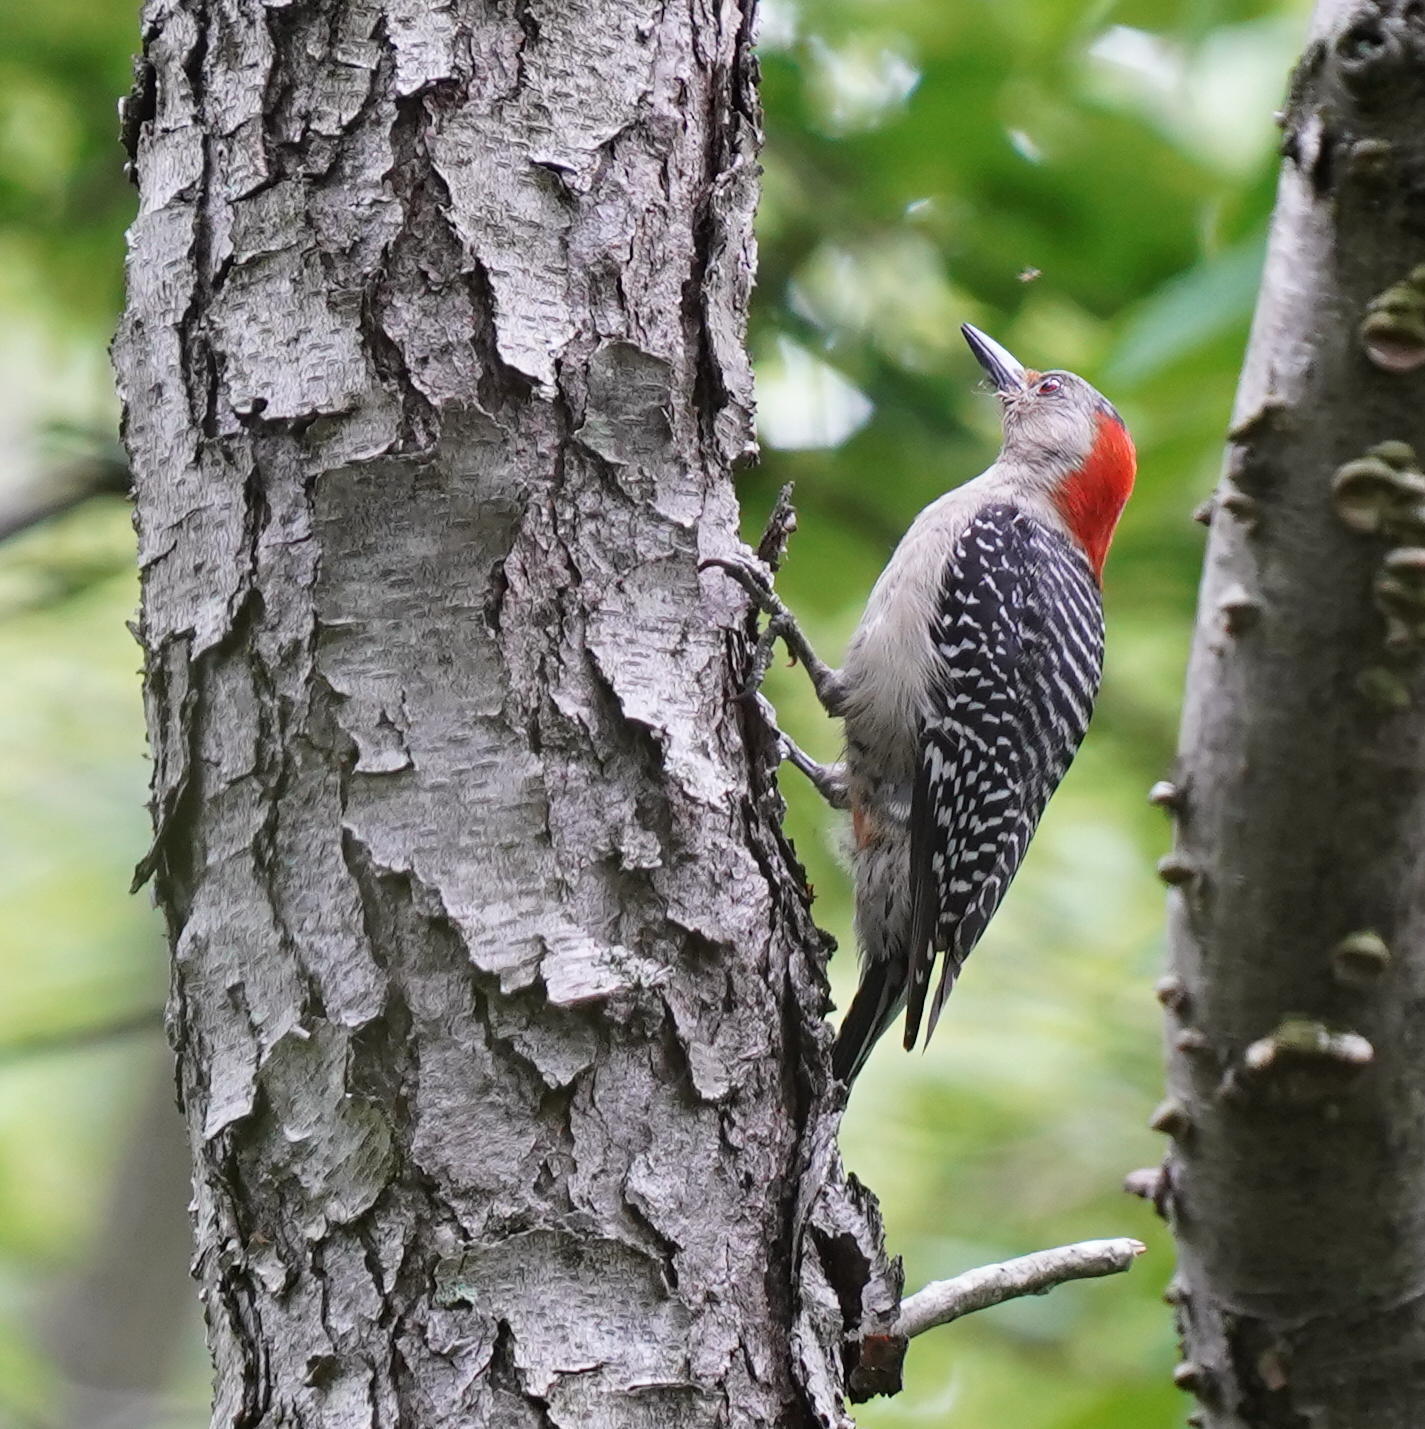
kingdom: Animalia
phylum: Chordata
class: Aves
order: Piciformes
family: Picidae
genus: Melanerpes
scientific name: Melanerpes carolinus
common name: Red-bellied woodpecker
